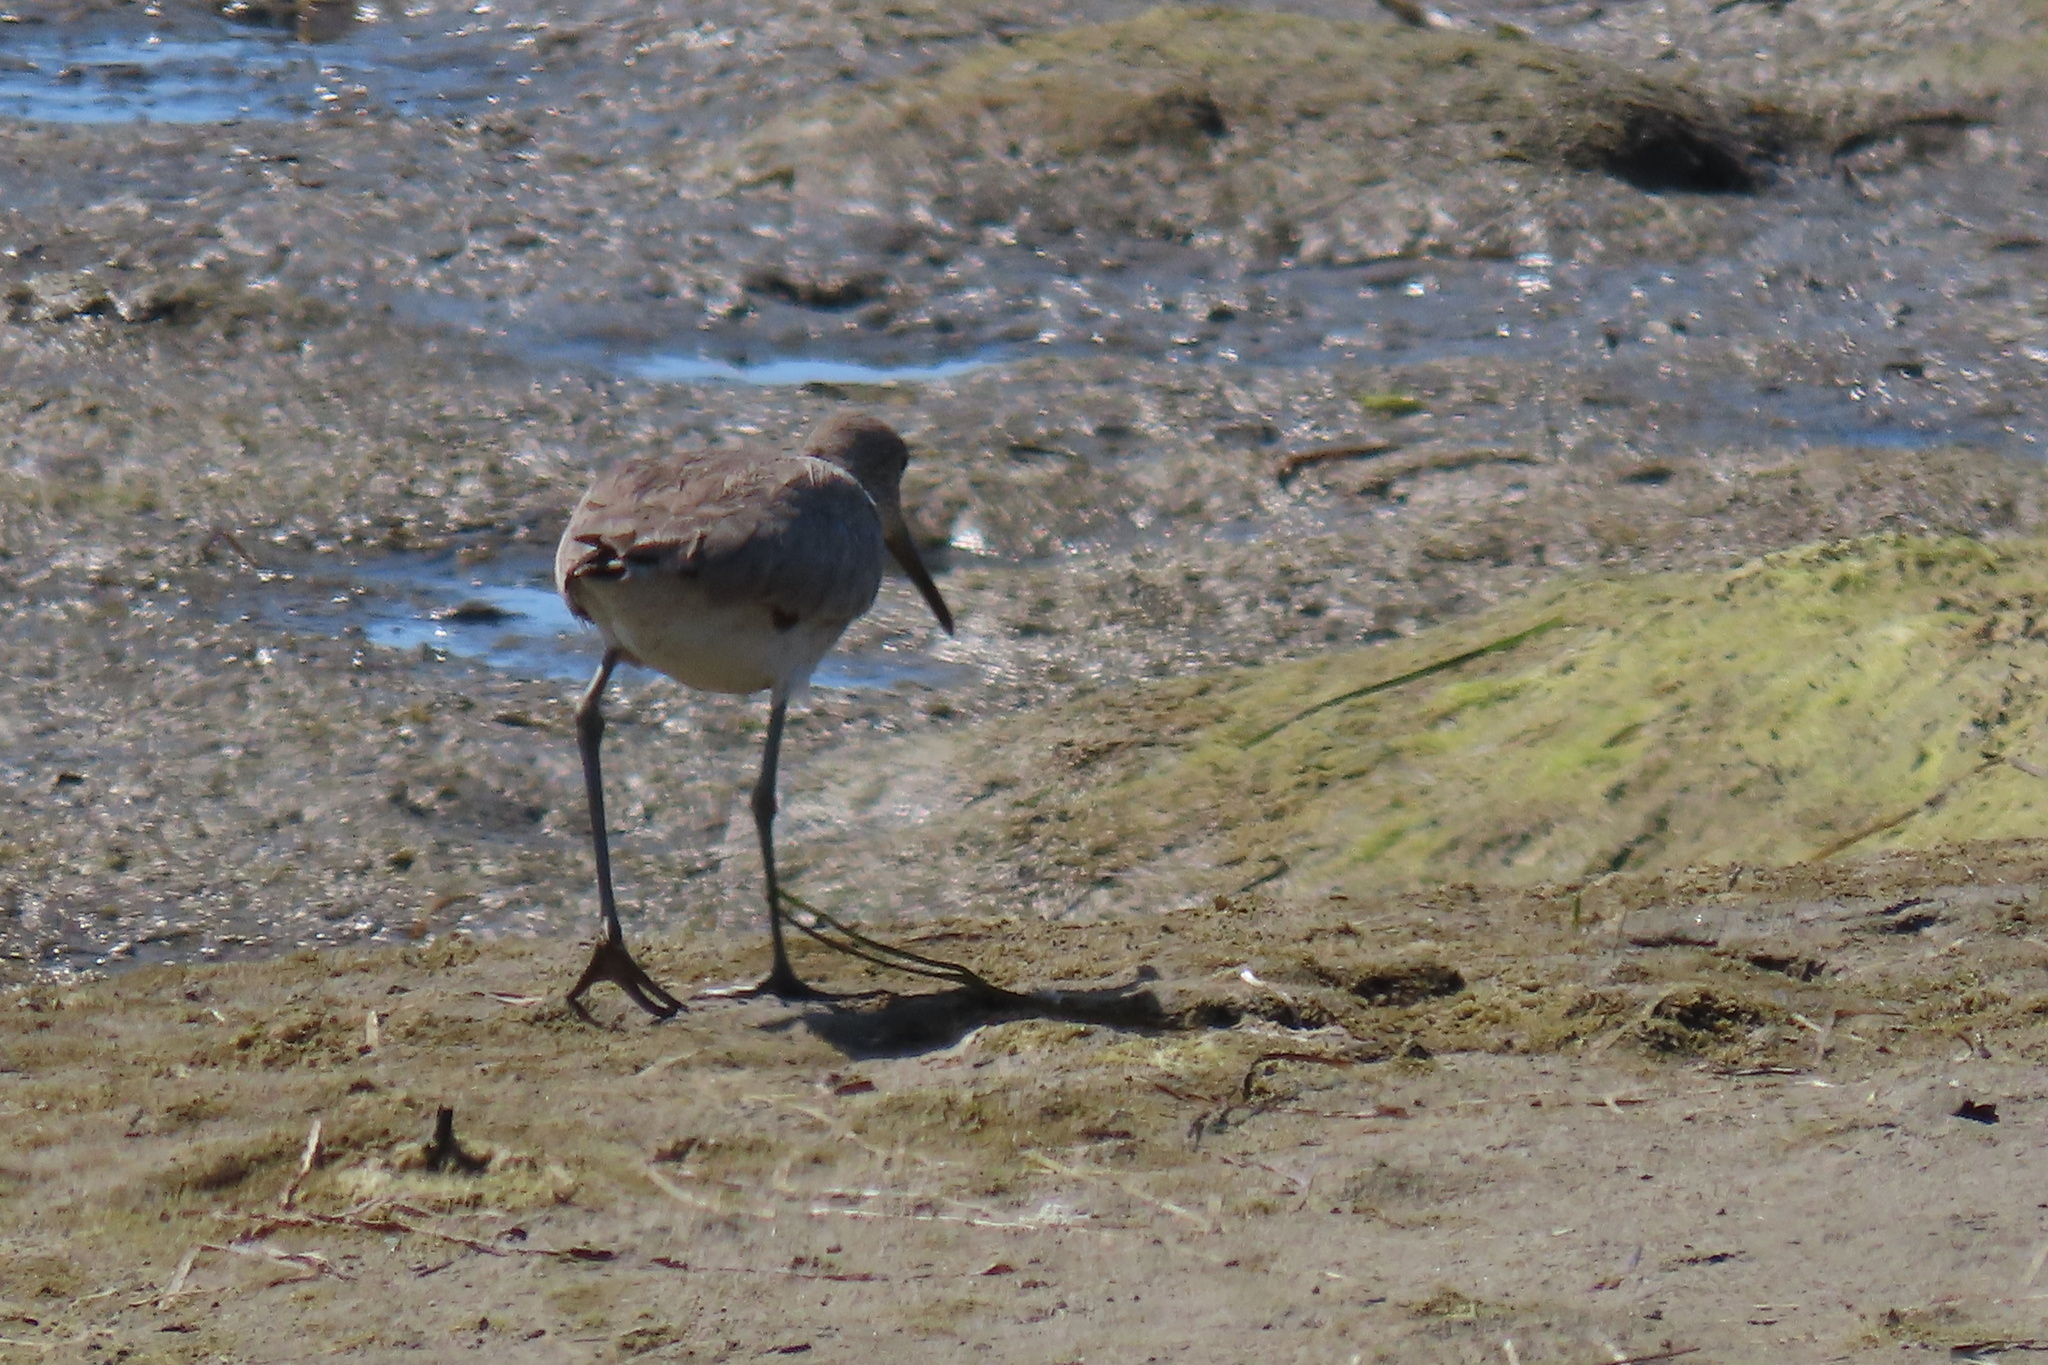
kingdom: Animalia
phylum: Chordata
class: Aves
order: Charadriiformes
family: Scolopacidae
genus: Tringa
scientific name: Tringa semipalmata
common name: Willet
